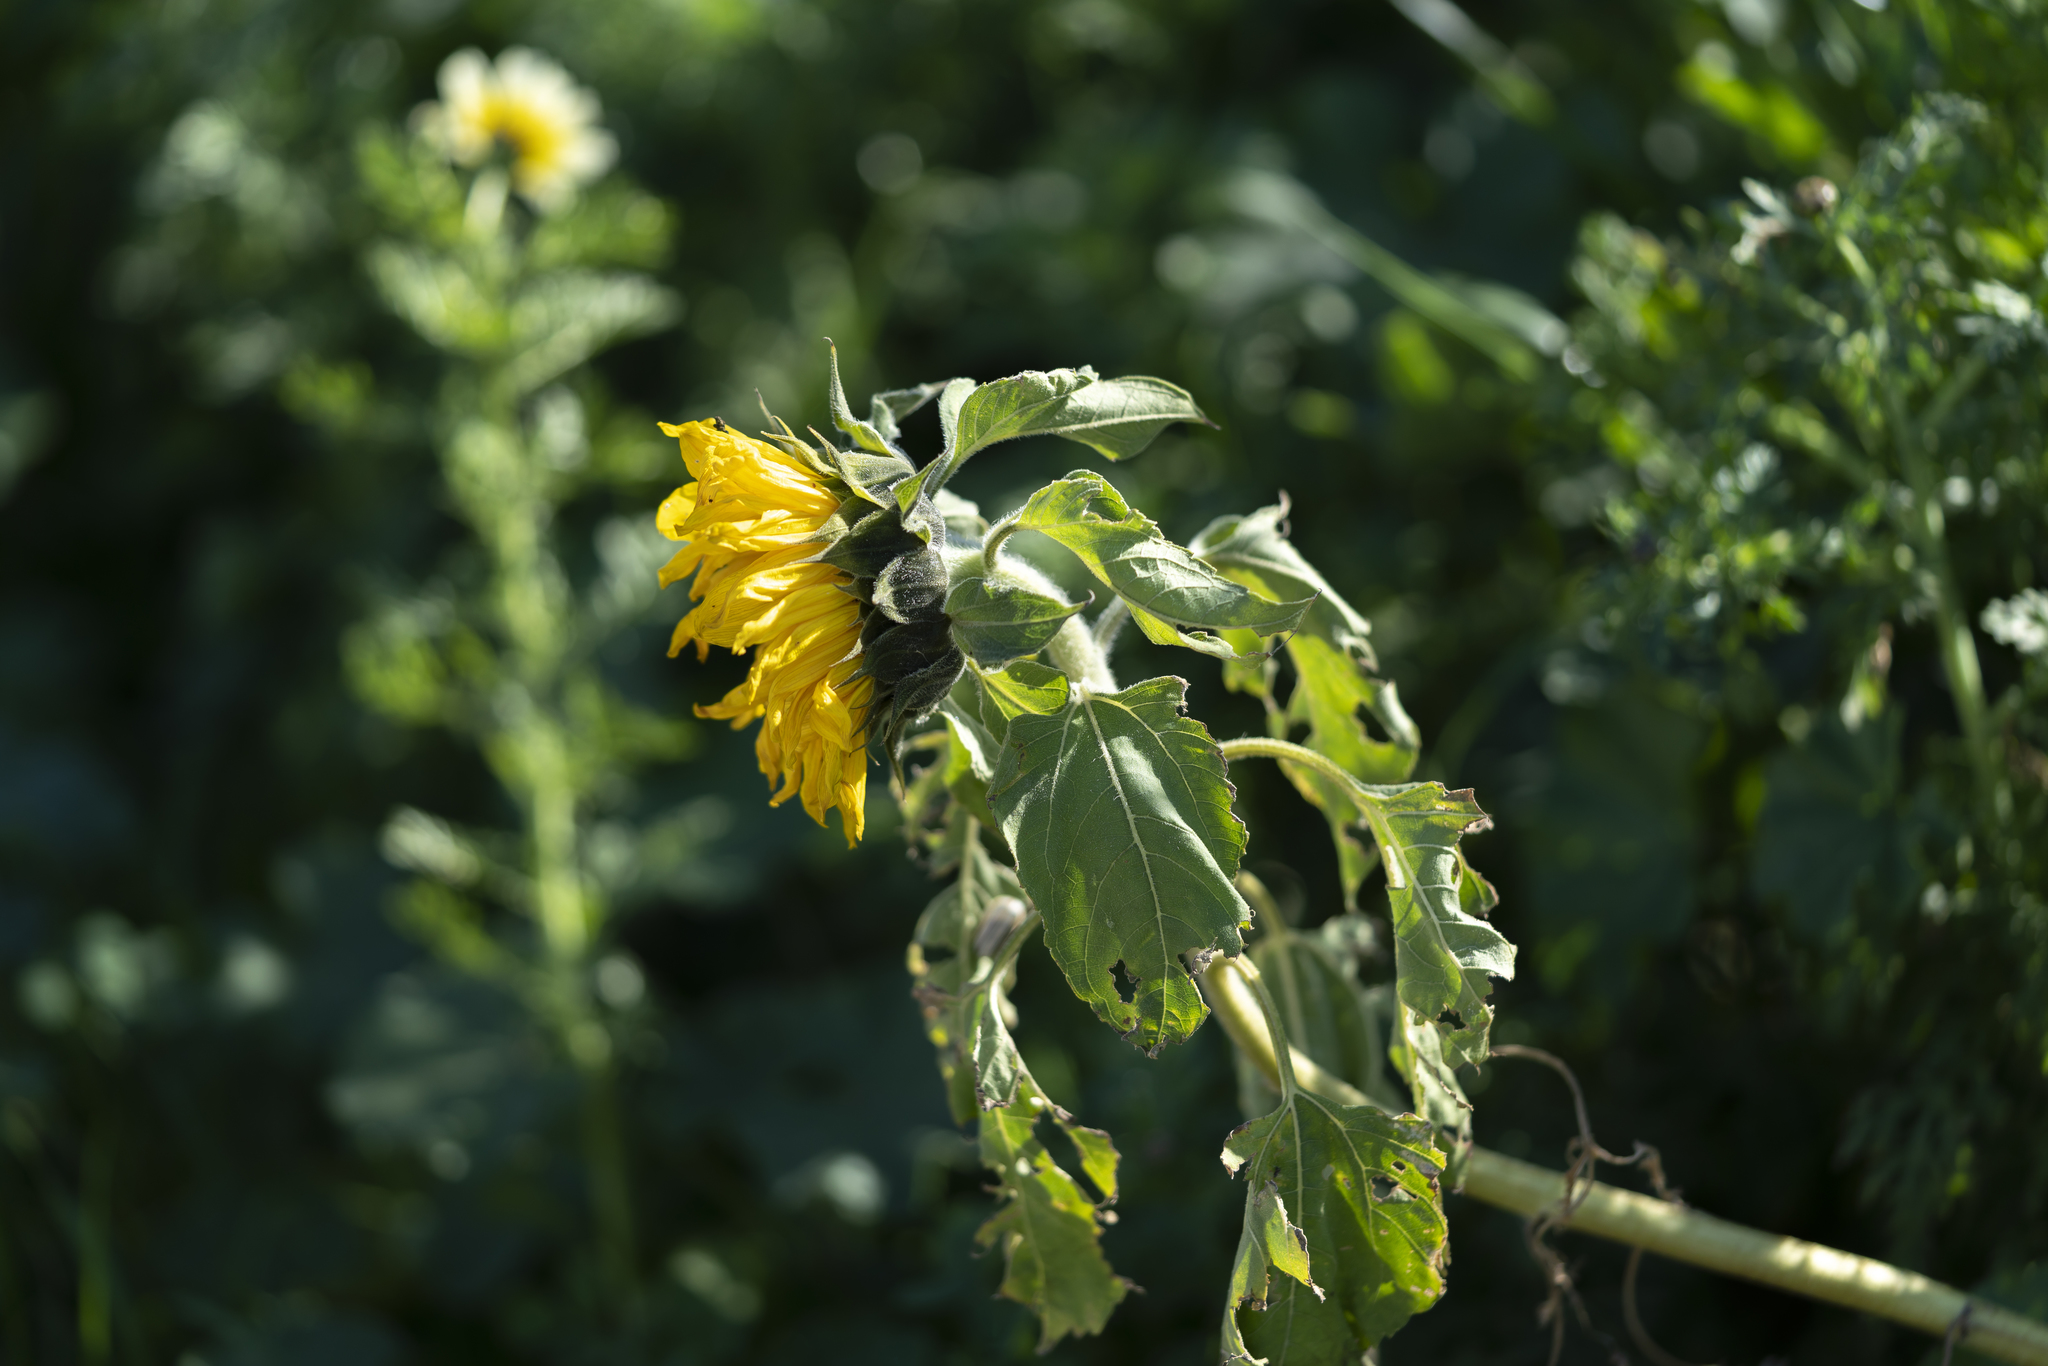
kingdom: Plantae
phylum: Tracheophyta
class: Magnoliopsida
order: Asterales
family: Asteraceae
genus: Helianthus
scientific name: Helianthus annuus
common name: Sunflower
